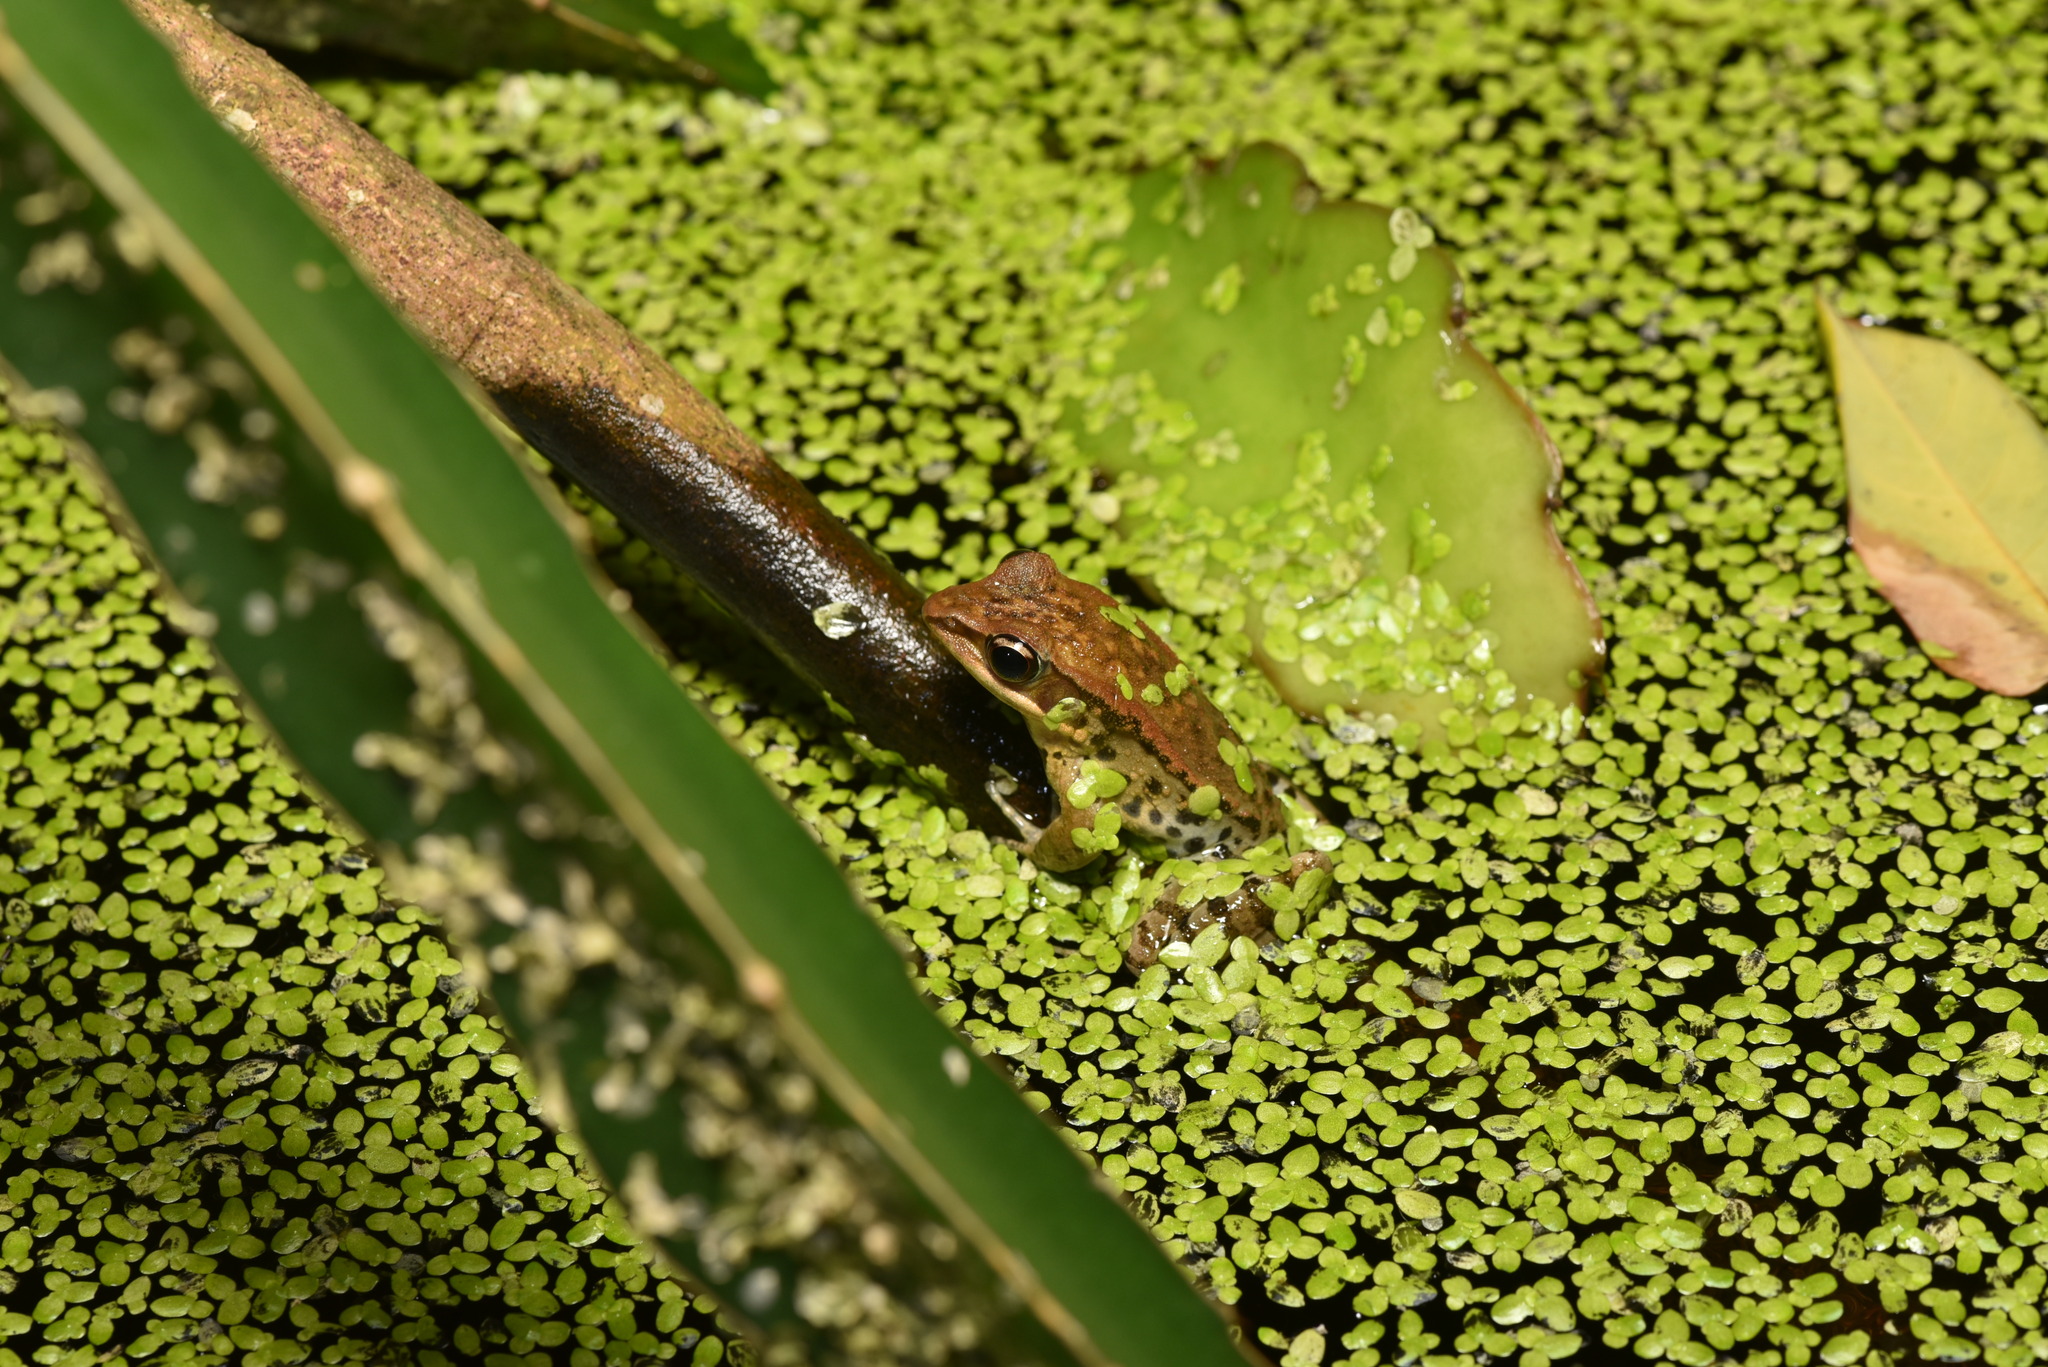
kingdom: Animalia
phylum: Chordata
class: Amphibia
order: Anura
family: Ranidae
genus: Hylarana
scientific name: Hylarana latouchii
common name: Broad-folded frog
